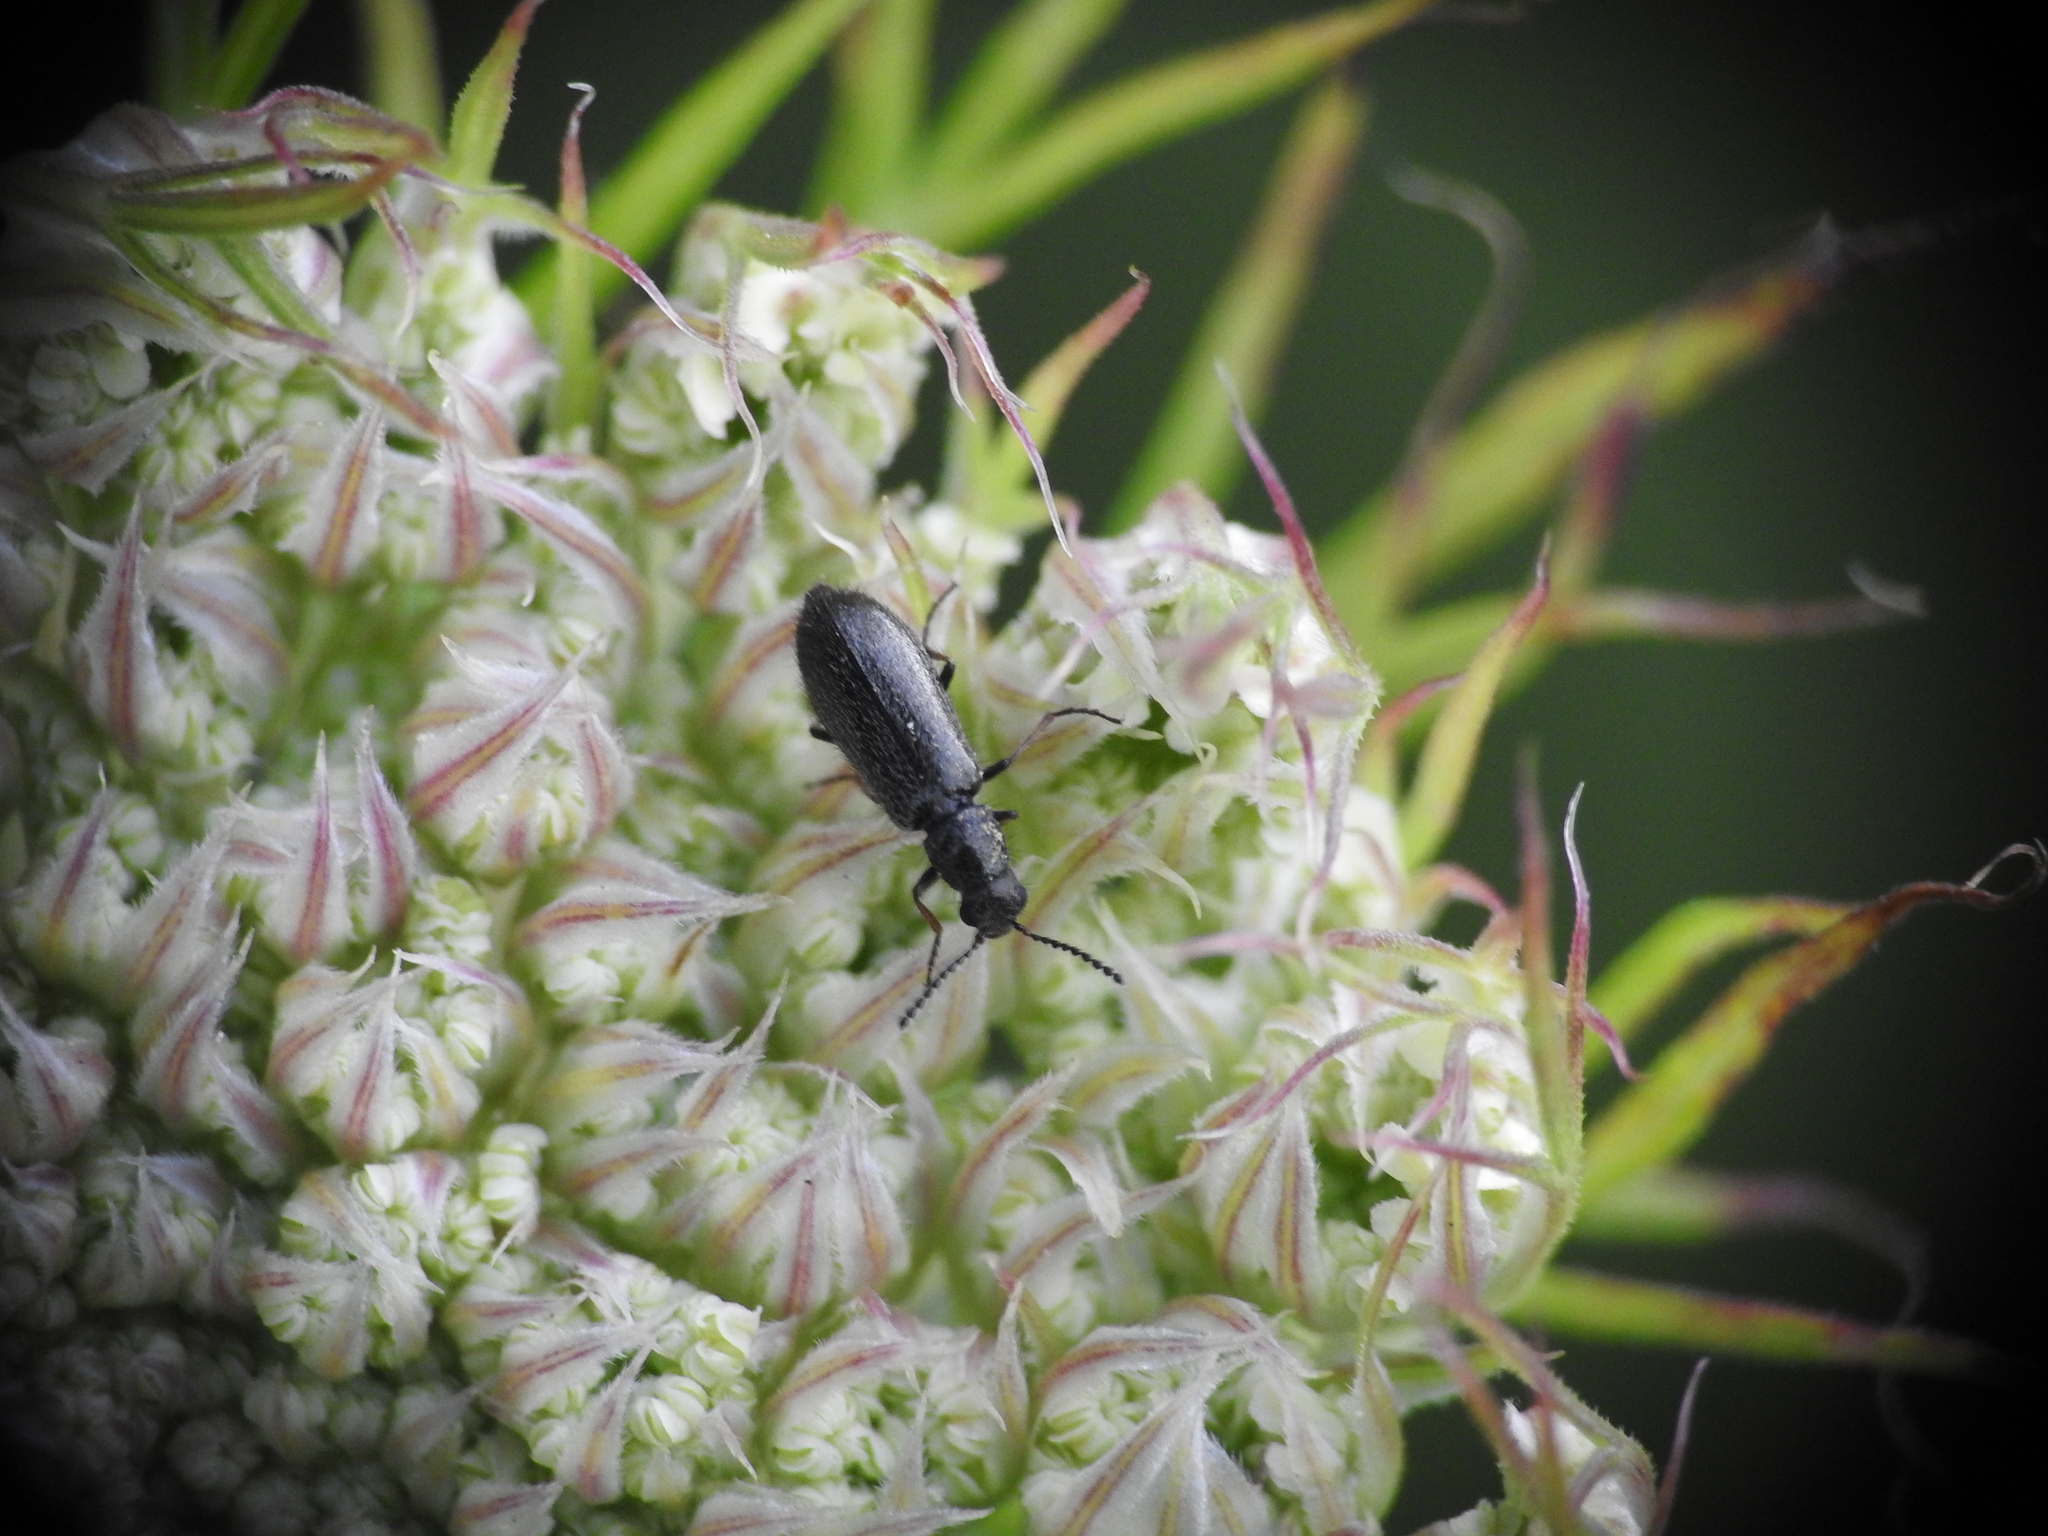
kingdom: Animalia
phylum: Arthropoda
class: Insecta
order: Coleoptera
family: Melyridae
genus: Dasytes
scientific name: Dasytes plumbeus
